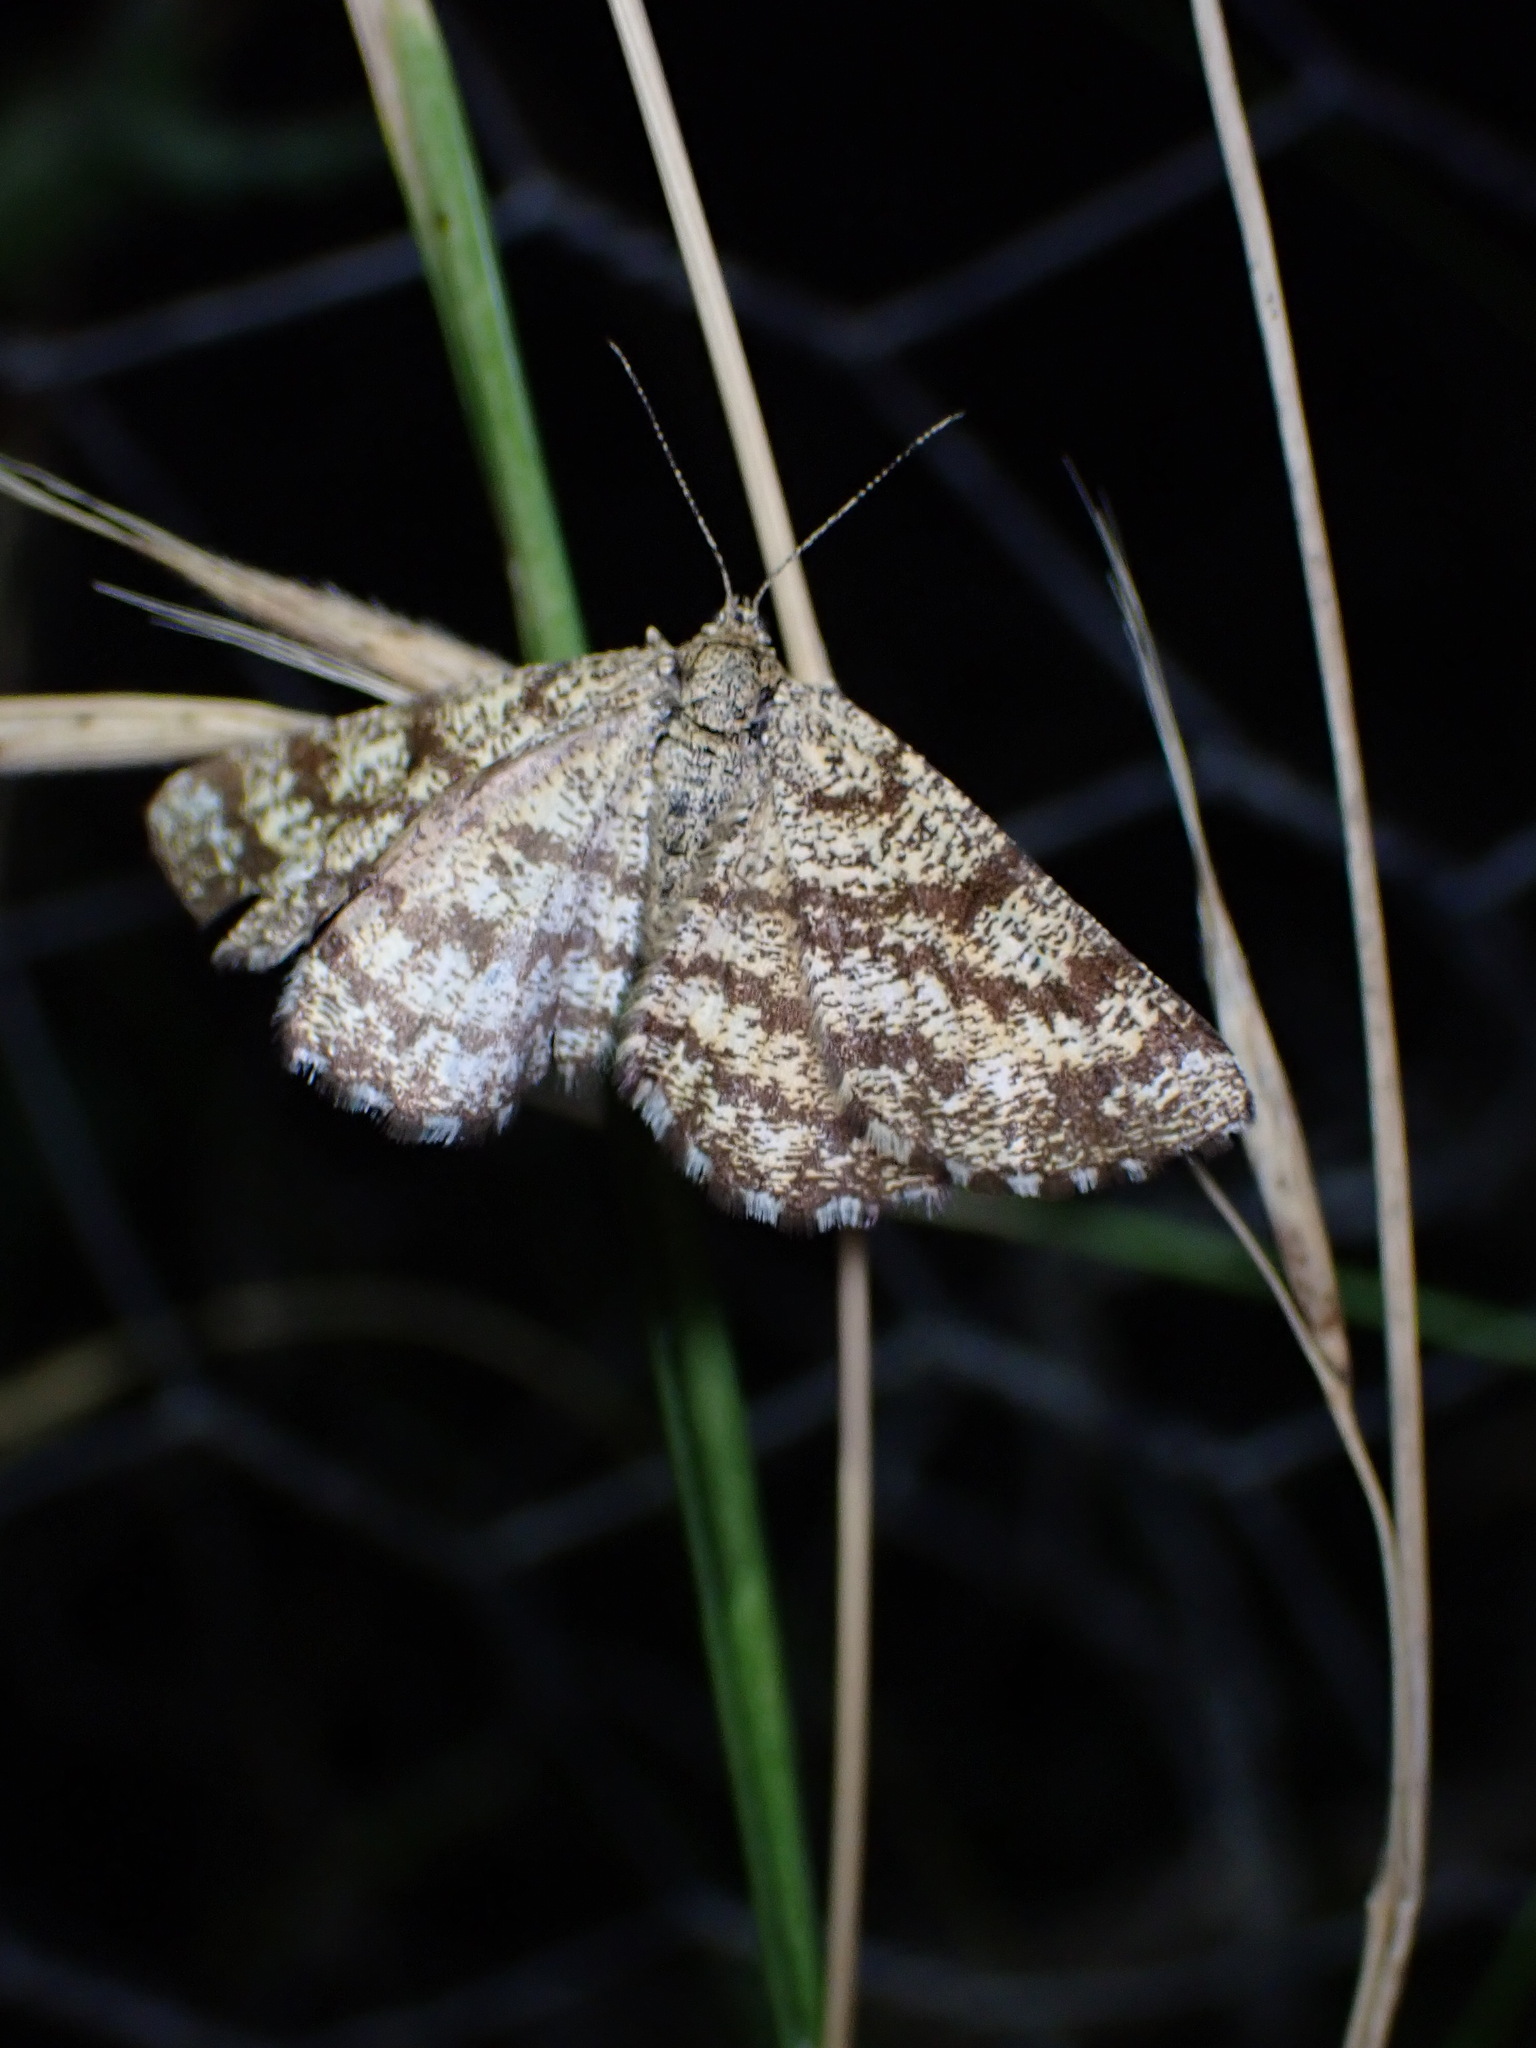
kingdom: Animalia
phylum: Arthropoda
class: Insecta
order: Lepidoptera
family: Geometridae
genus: Ematurga
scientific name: Ematurga atomaria
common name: Common heath
